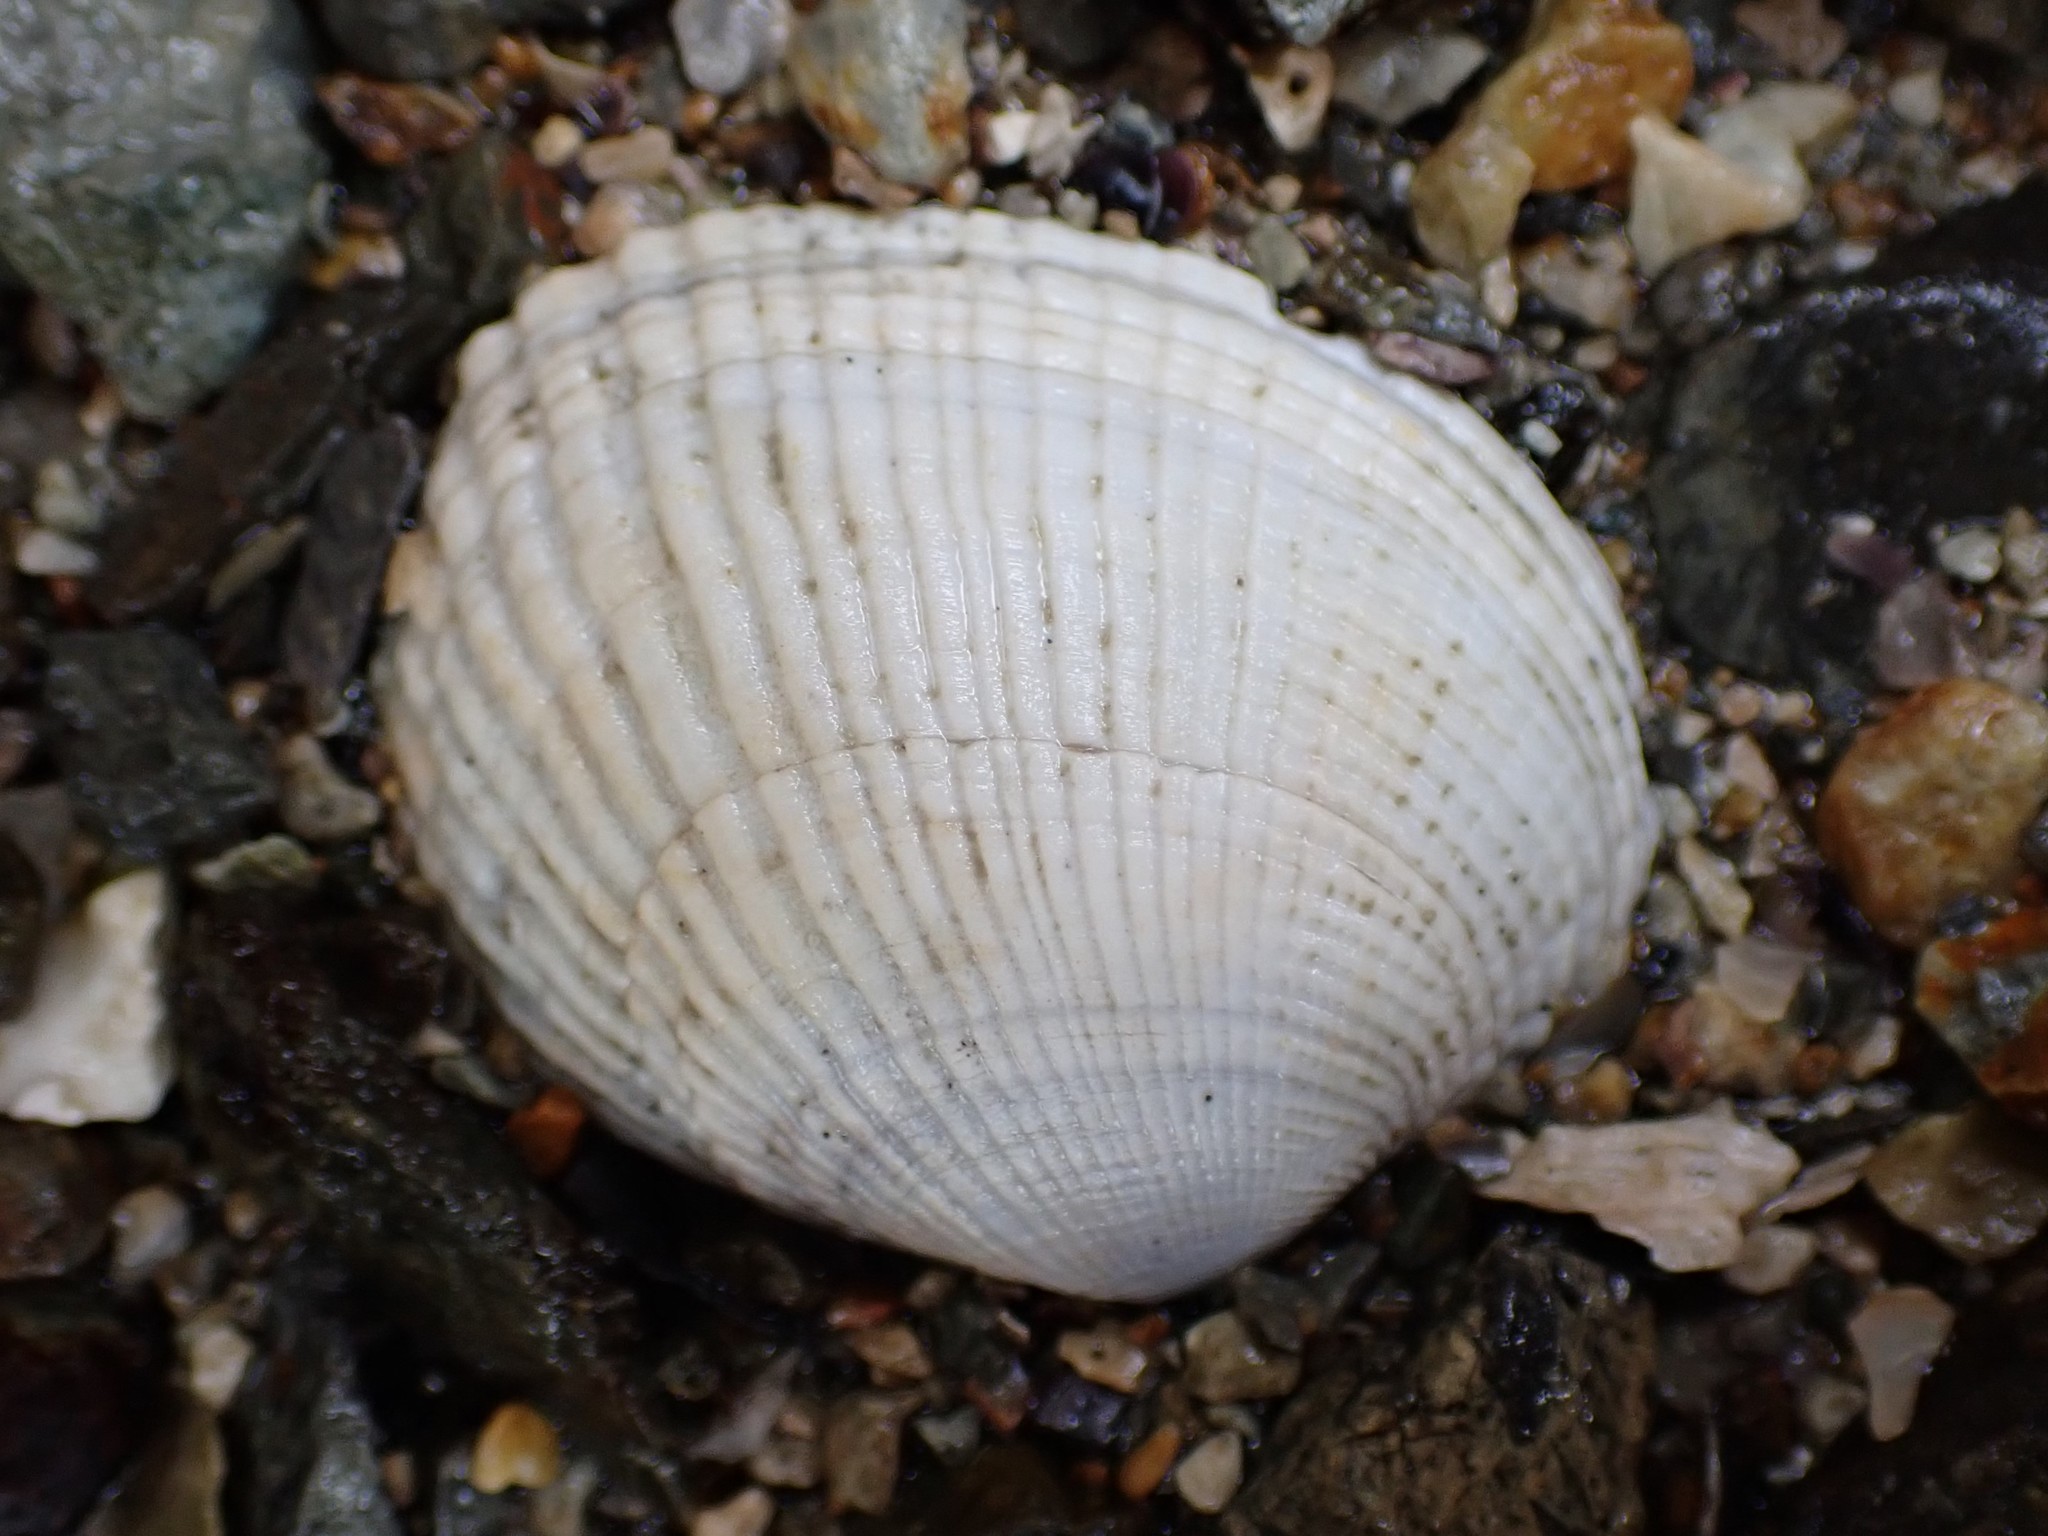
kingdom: Animalia
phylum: Mollusca
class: Bivalvia
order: Venerida
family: Veneridae
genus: Leukoma
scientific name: Leukoma crassicosta
